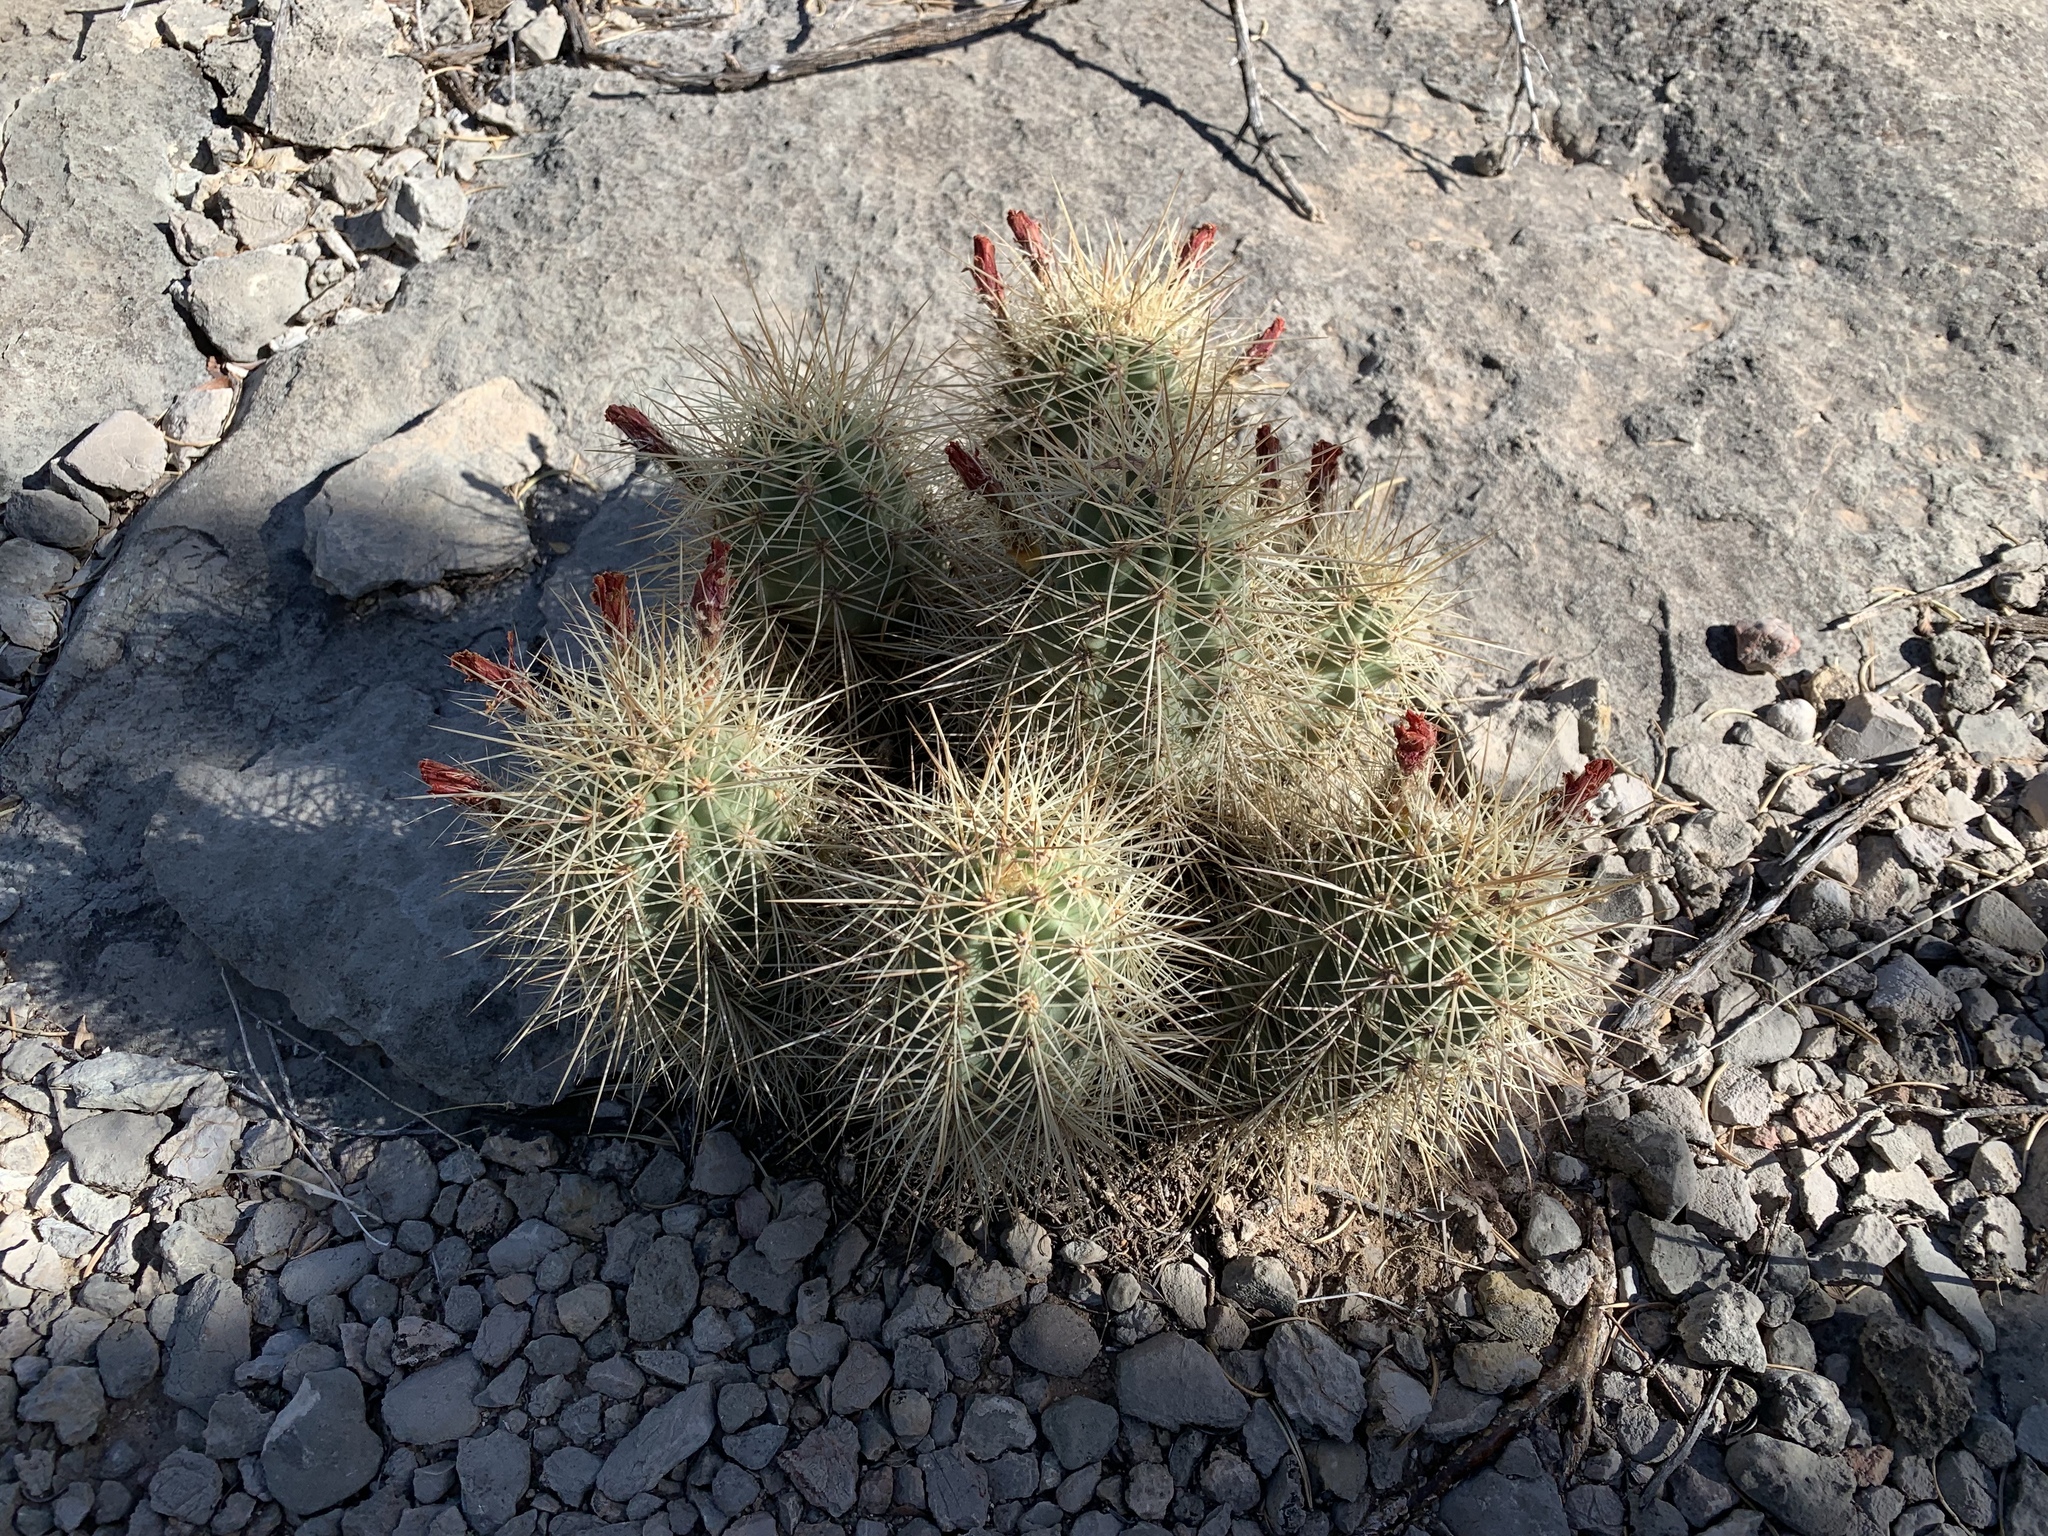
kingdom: Plantae
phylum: Tracheophyta
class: Magnoliopsida
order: Caryophyllales
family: Cactaceae
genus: Echinocereus
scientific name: Echinocereus coccineus
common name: Scarlet hedgehog cactus
